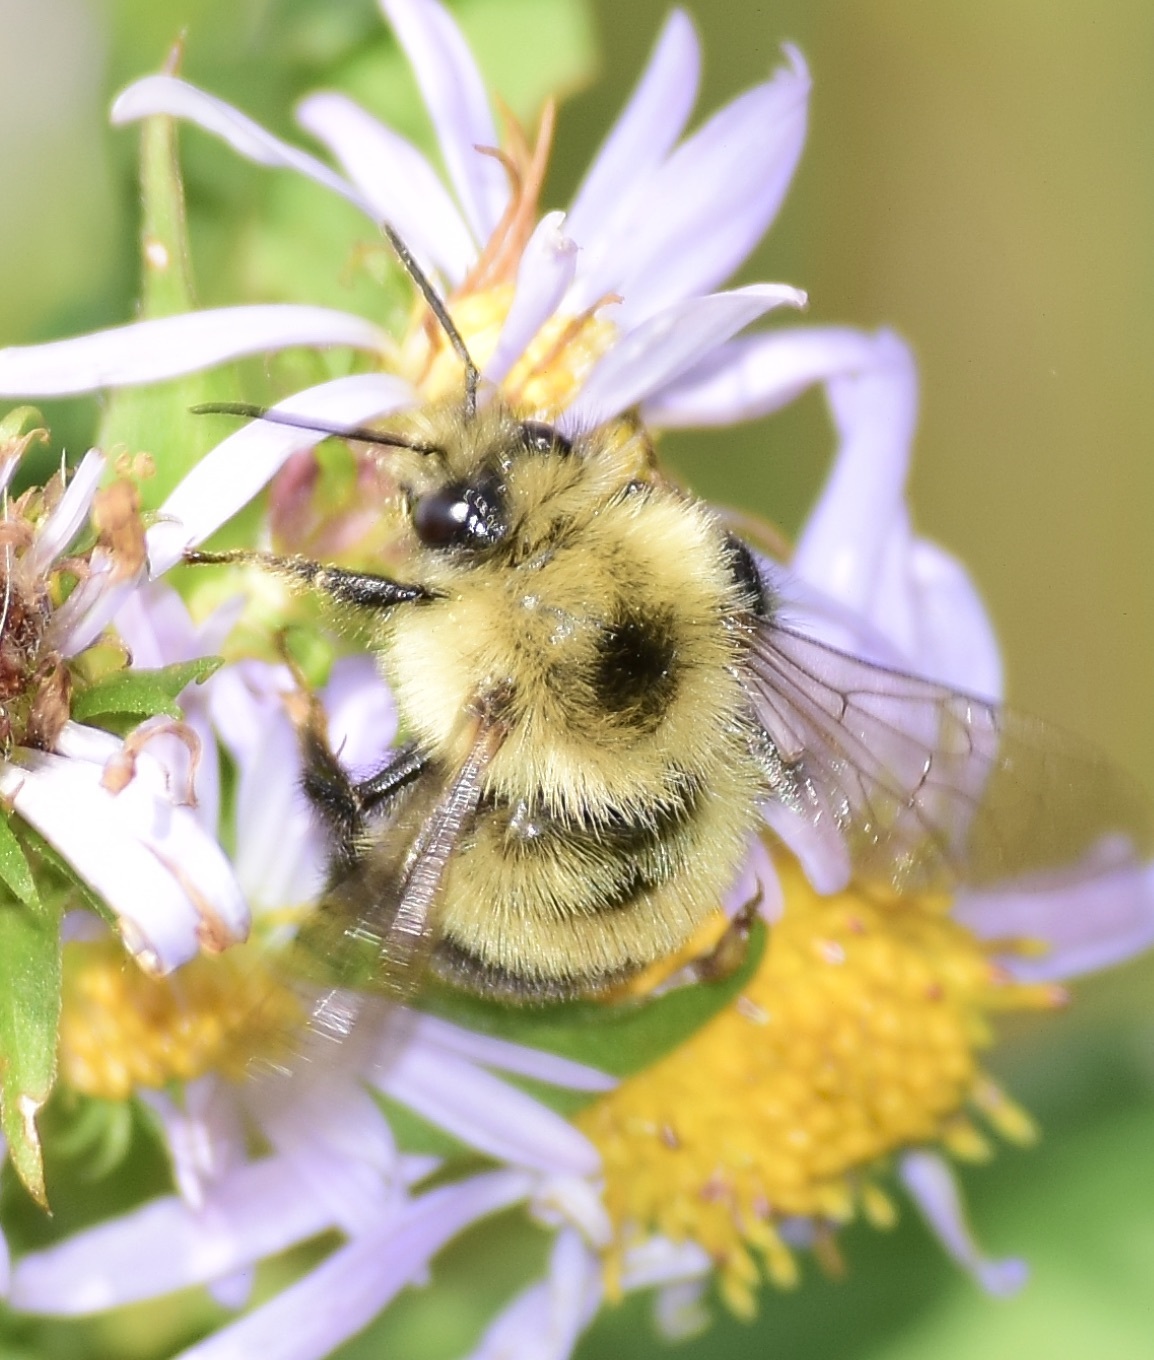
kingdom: Animalia
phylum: Arthropoda
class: Insecta
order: Hymenoptera
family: Apidae
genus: Pyrobombus
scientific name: Pyrobombus
